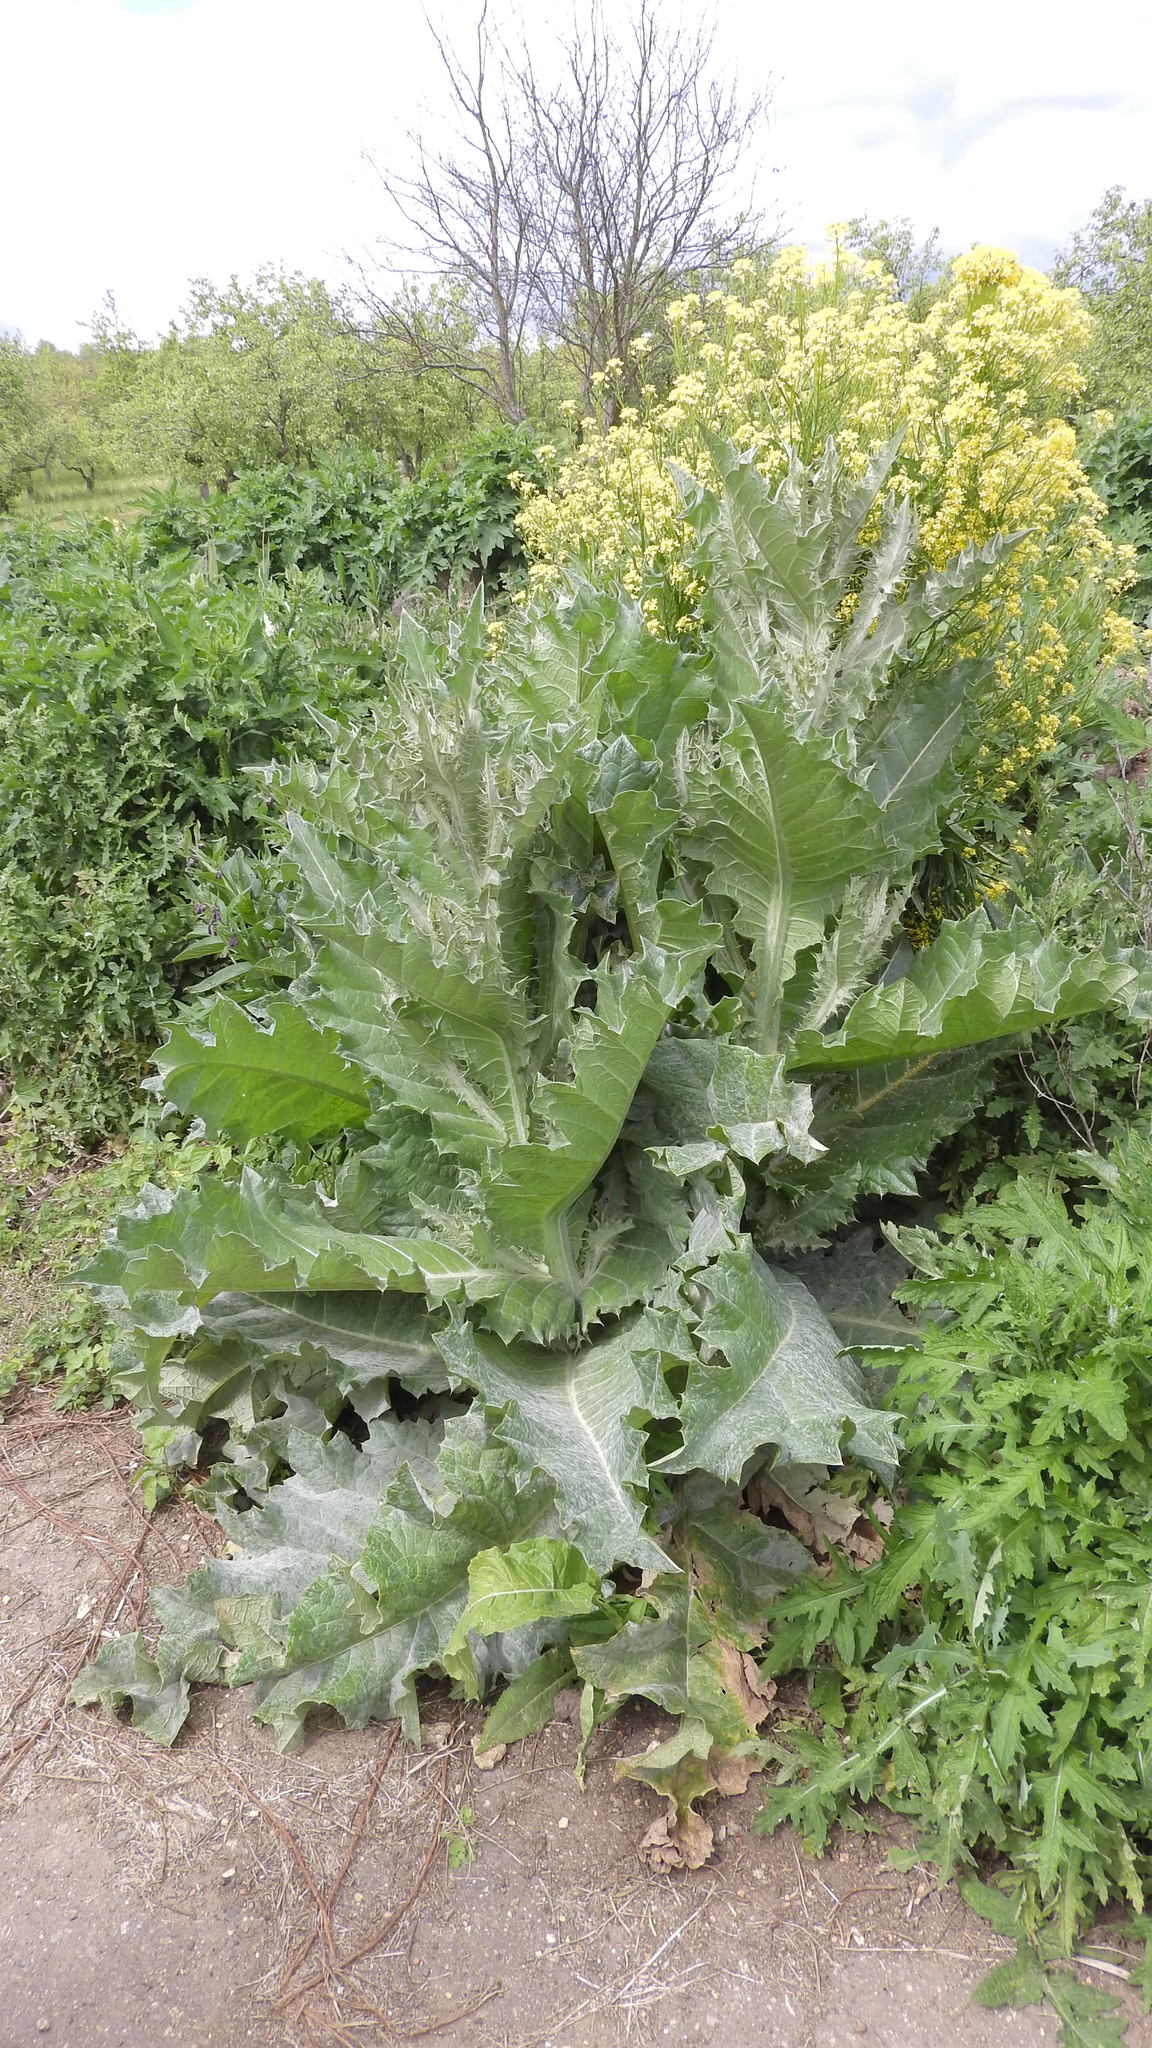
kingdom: Plantae
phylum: Tracheophyta
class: Magnoliopsida
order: Asterales
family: Asteraceae
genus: Onopordum
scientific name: Onopordum acanthium
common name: Scotch thistle
